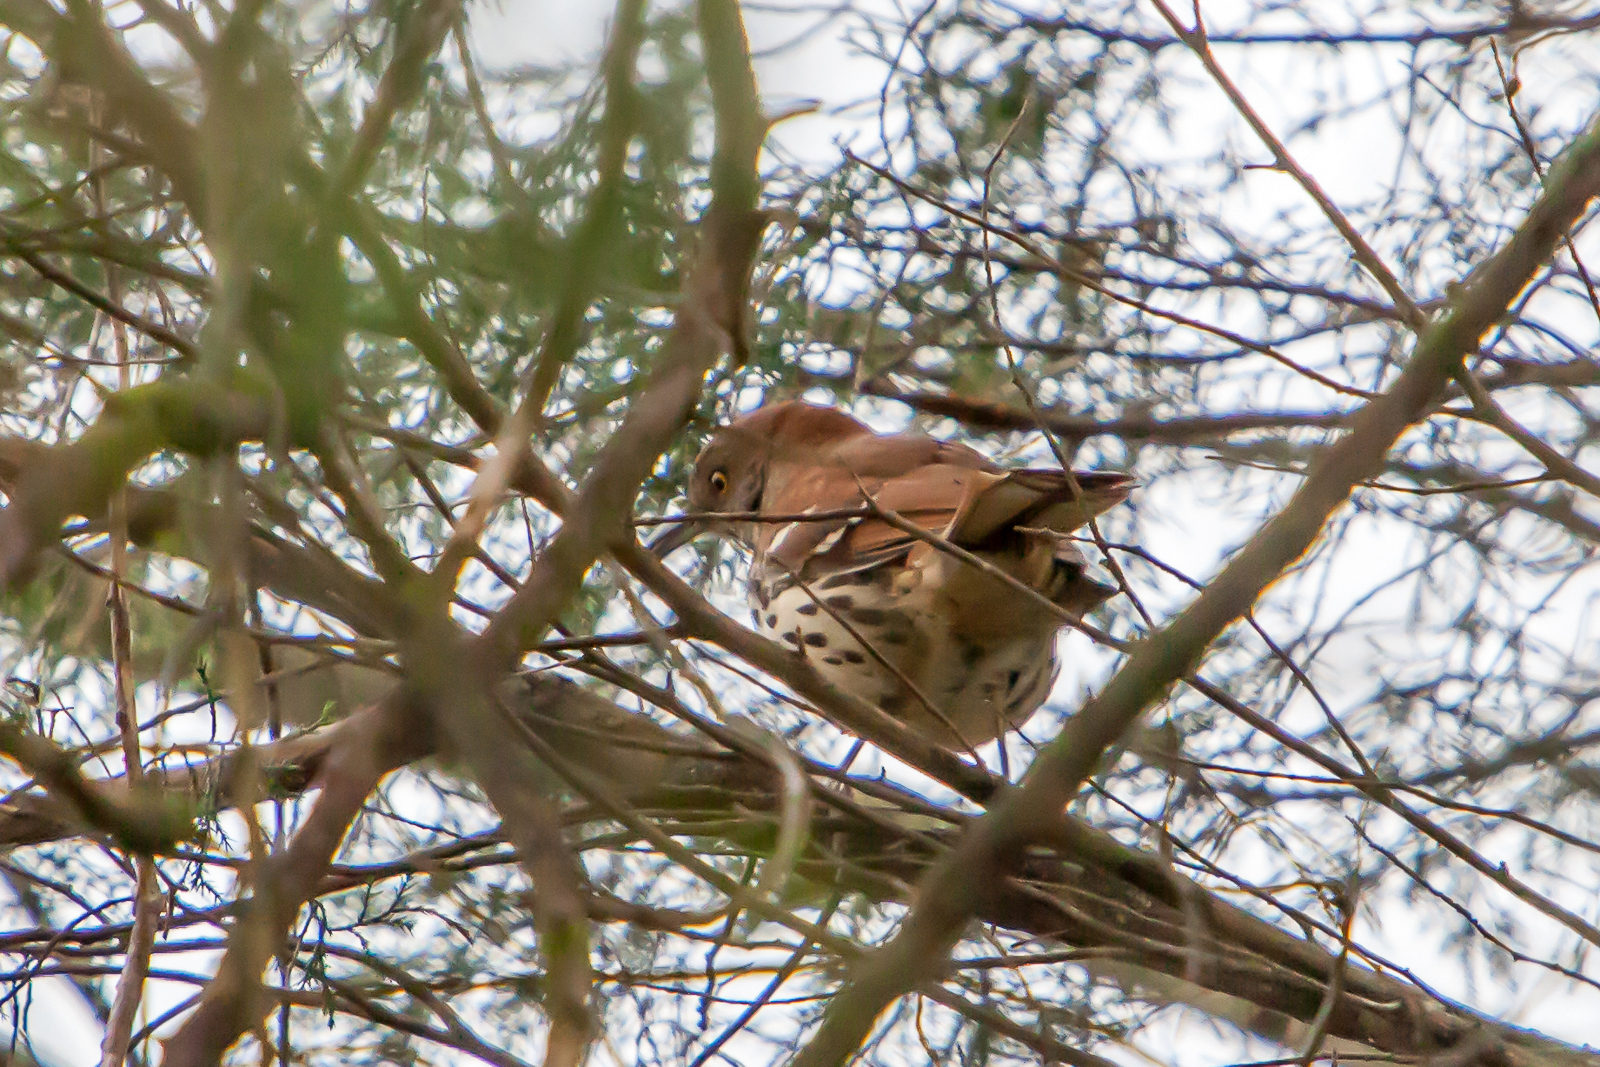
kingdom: Animalia
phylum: Chordata
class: Aves
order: Passeriformes
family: Mimidae
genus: Toxostoma
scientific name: Toxostoma rufum
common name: Brown thrasher
